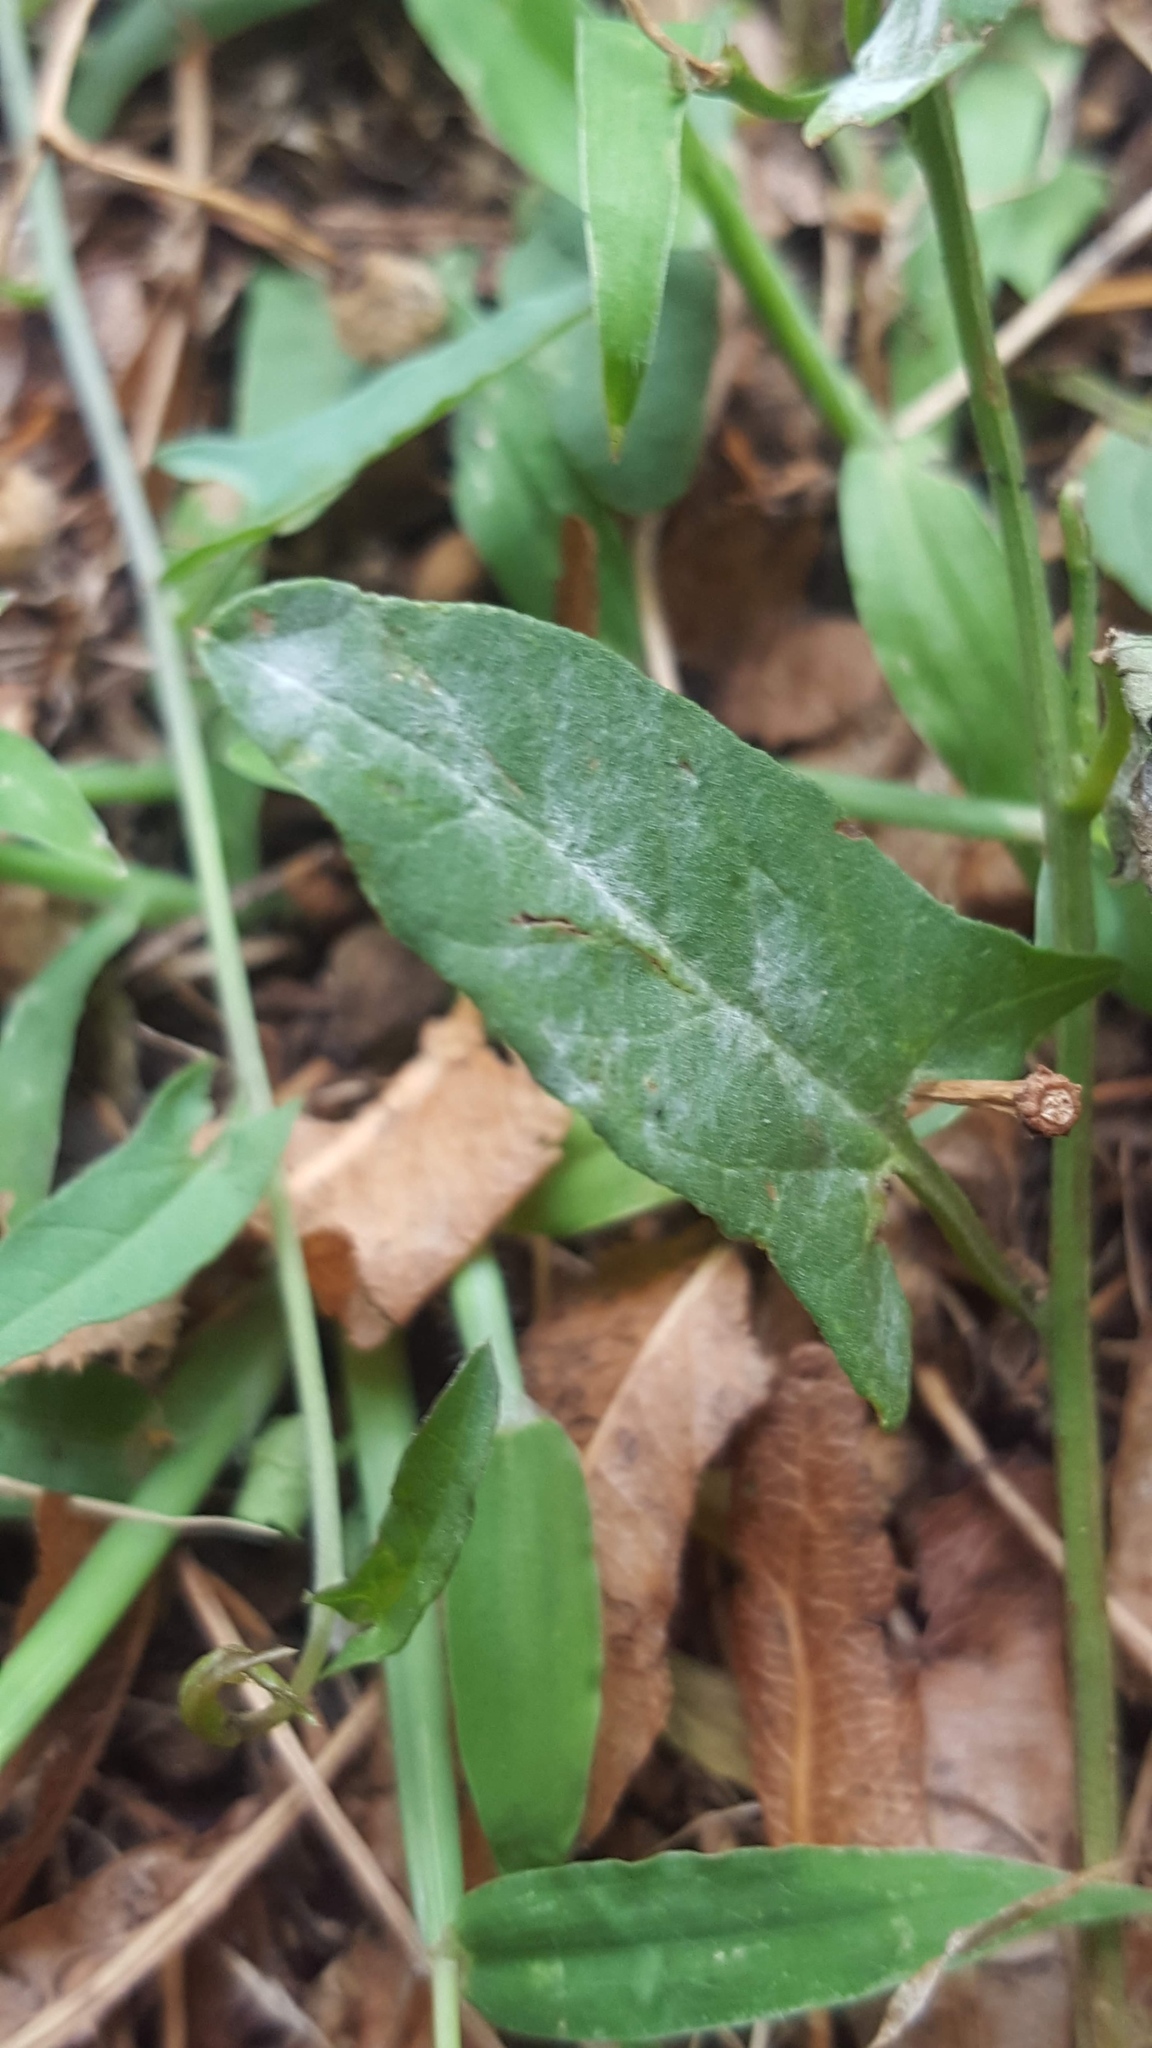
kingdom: Fungi
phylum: Ascomycota
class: Leotiomycetes
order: Helotiales
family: Erysiphaceae
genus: Erysiphe
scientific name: Erysiphe convolvuli
